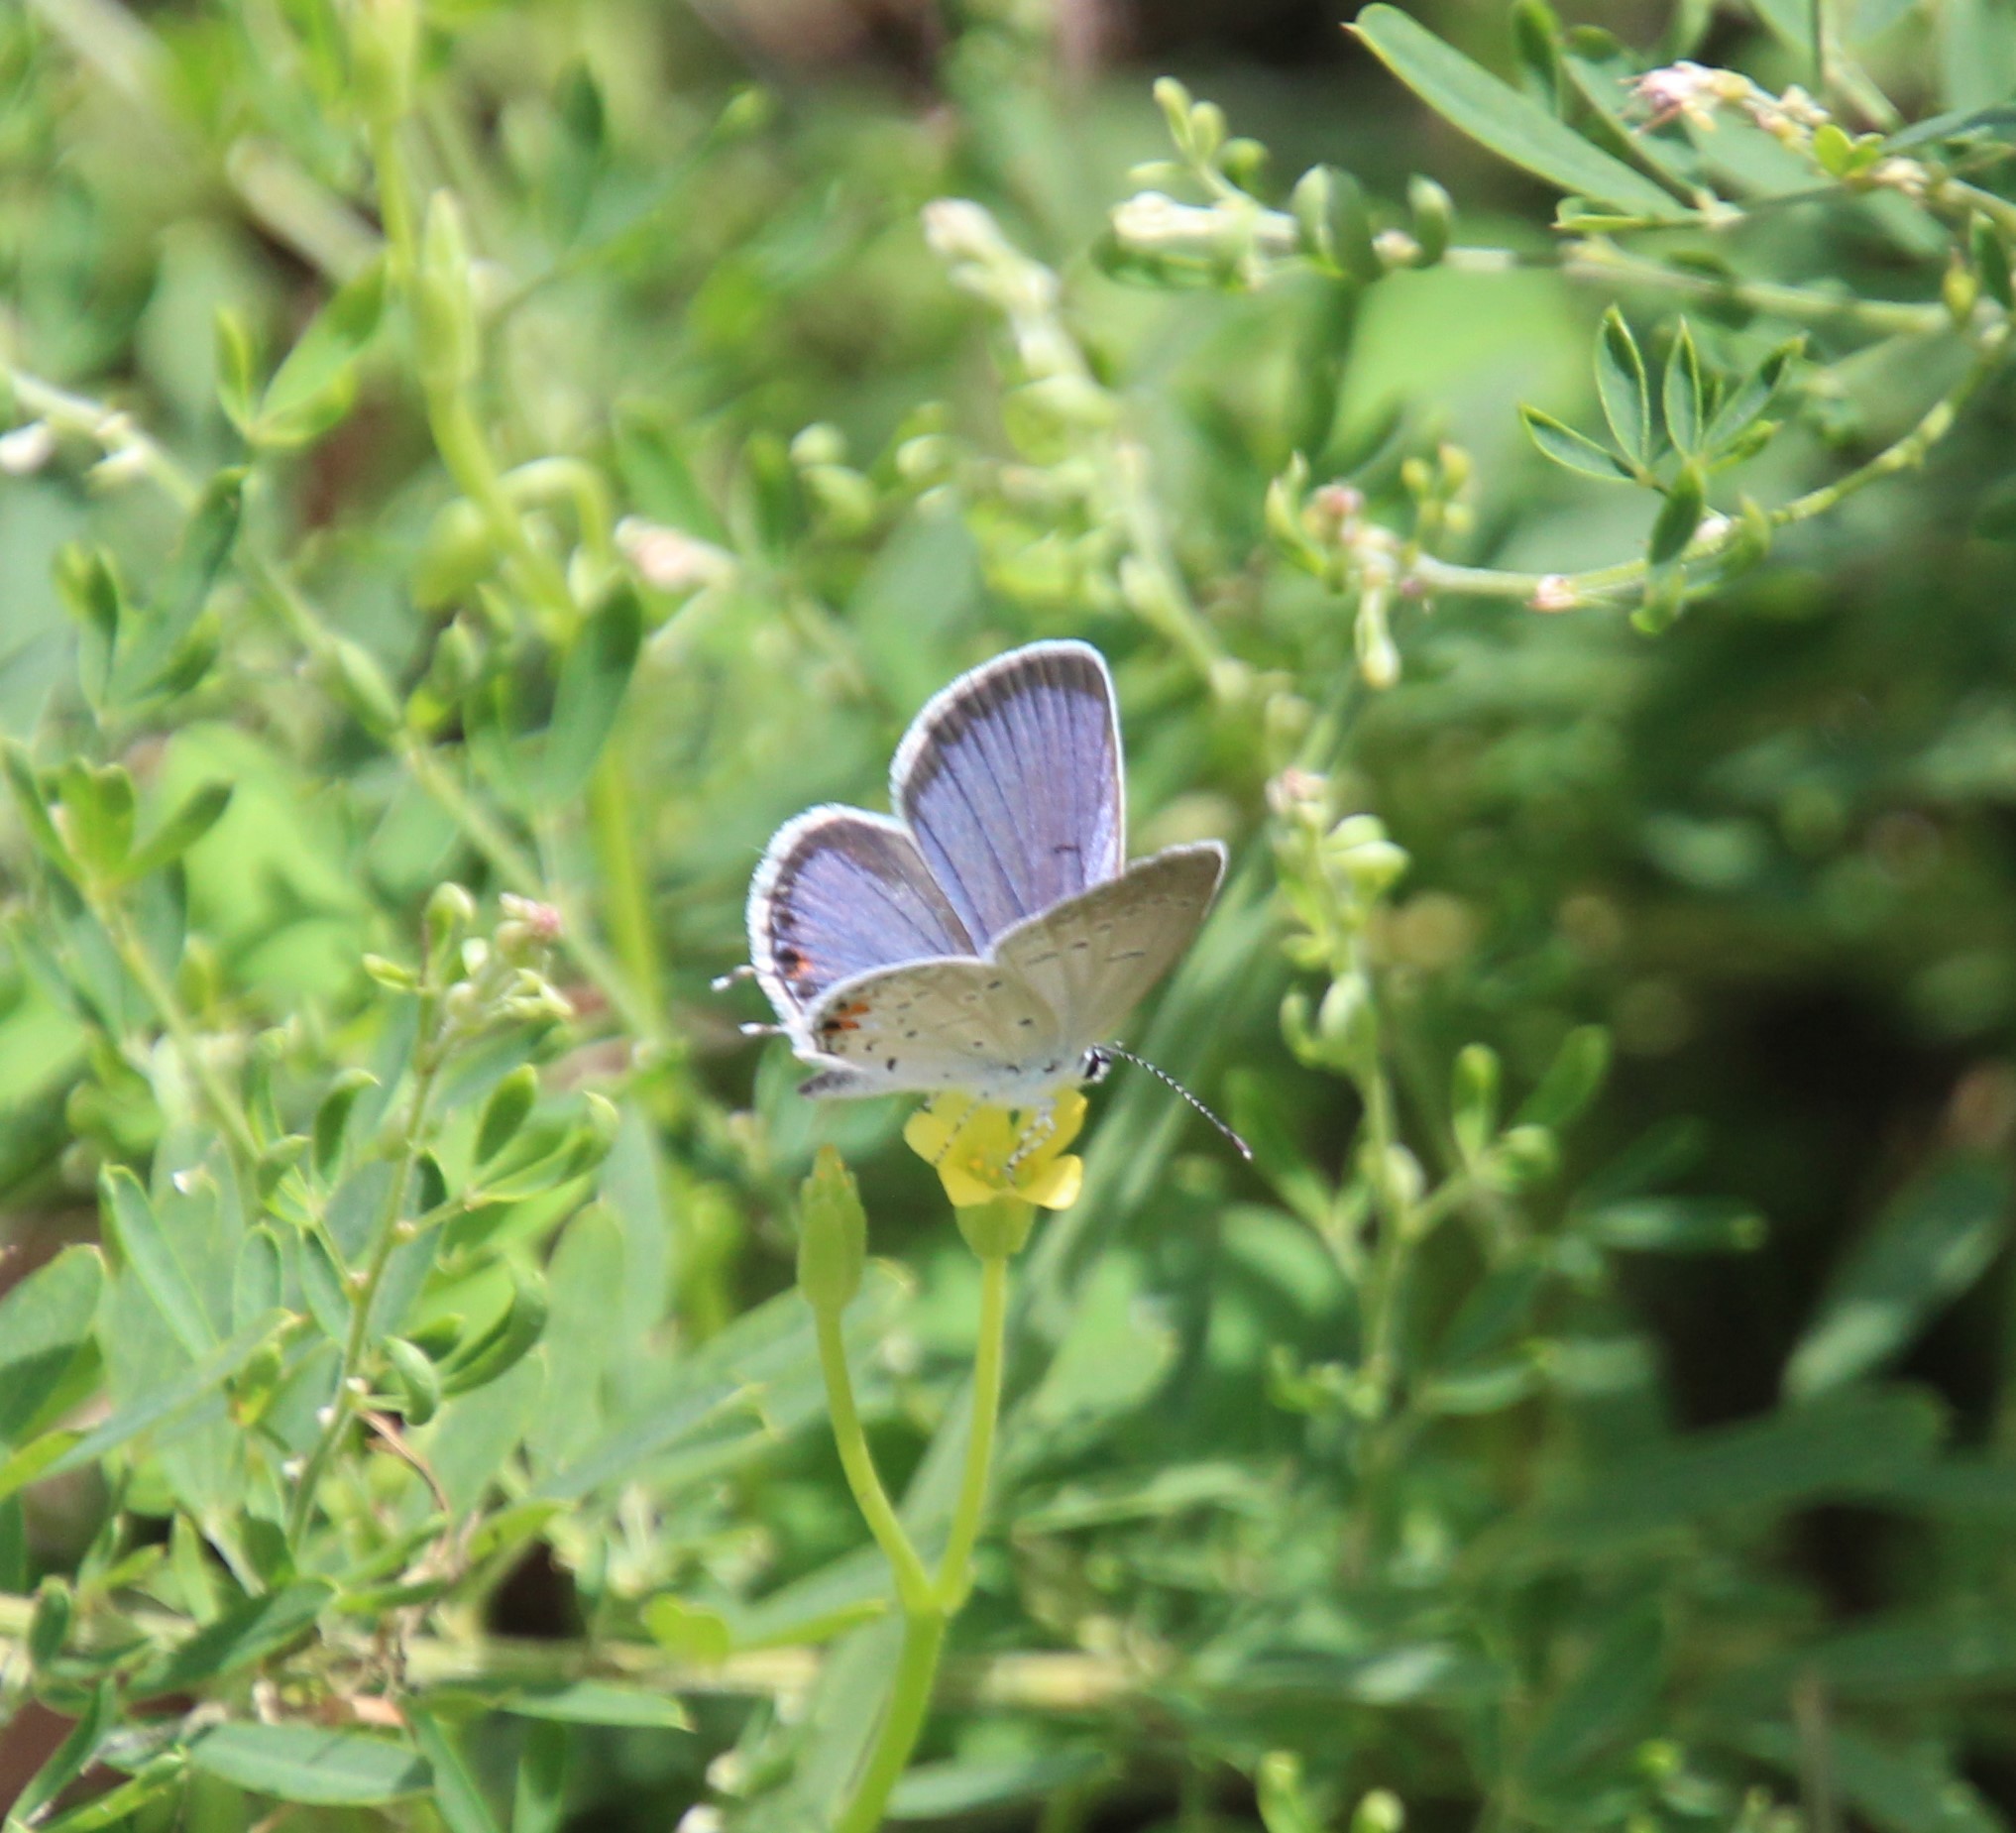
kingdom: Animalia
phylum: Arthropoda
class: Insecta
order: Lepidoptera
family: Lycaenidae
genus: Elkalyce
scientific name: Elkalyce comyntas
